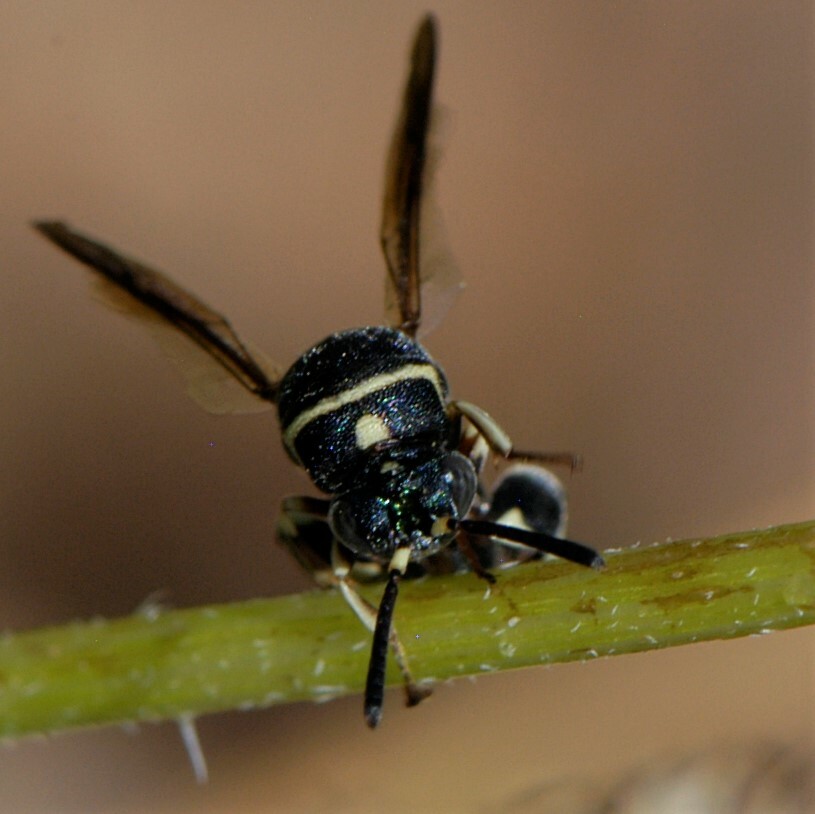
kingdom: Animalia
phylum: Arthropoda
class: Insecta
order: Hymenoptera
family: Leucospidae
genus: Leucospis
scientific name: Leucospis birkmani
